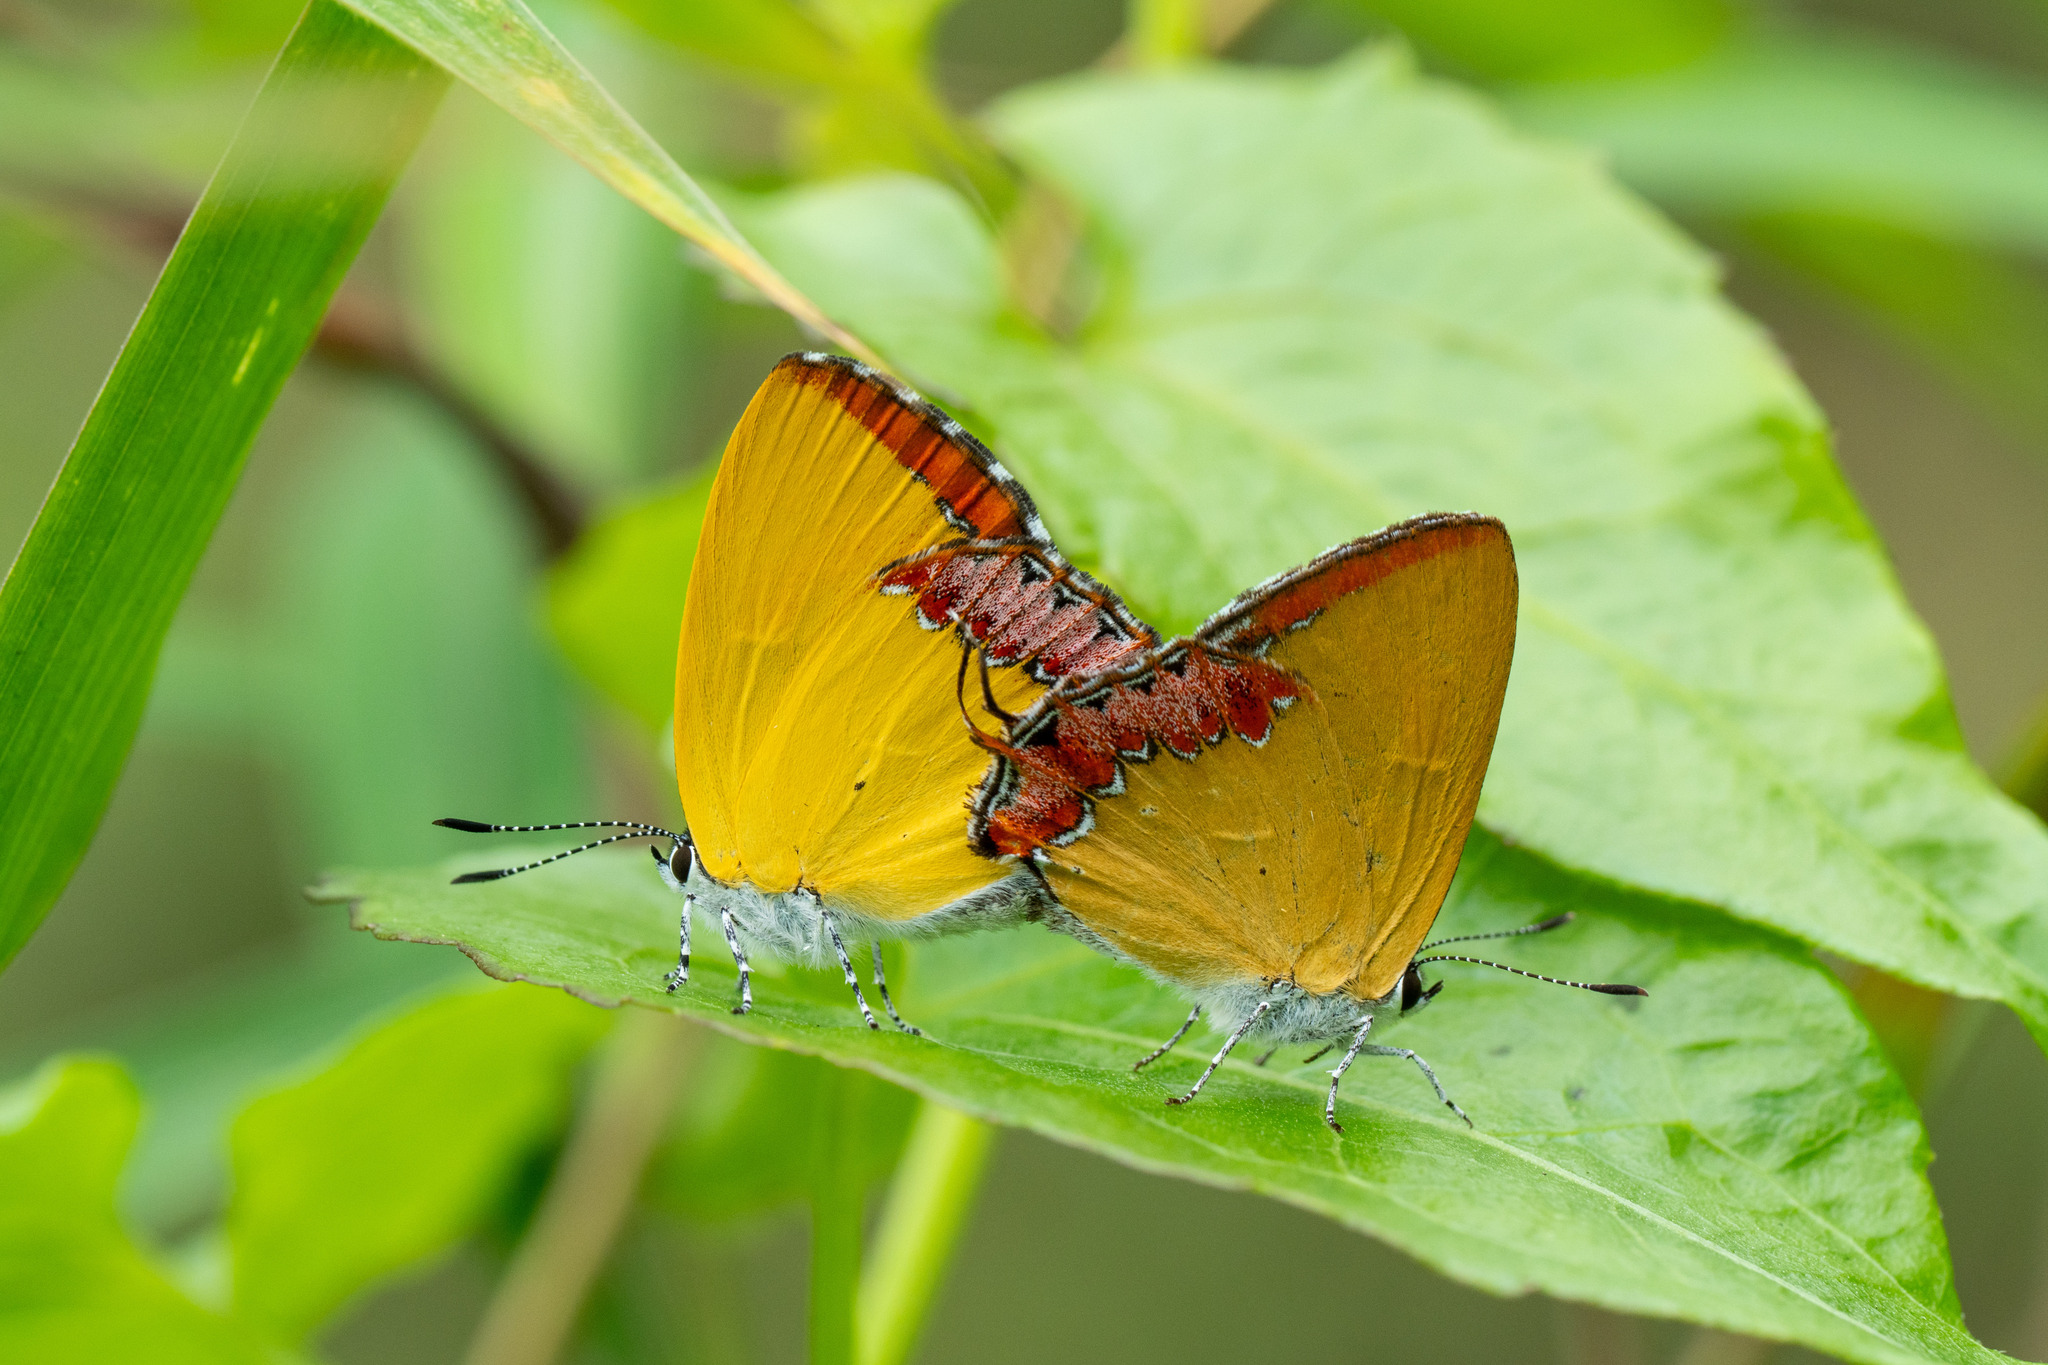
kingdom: Animalia
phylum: Arthropoda
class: Insecta
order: Lepidoptera
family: Lycaenidae
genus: Heliophorus
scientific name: Heliophorus epicles
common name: Purple sapphire
